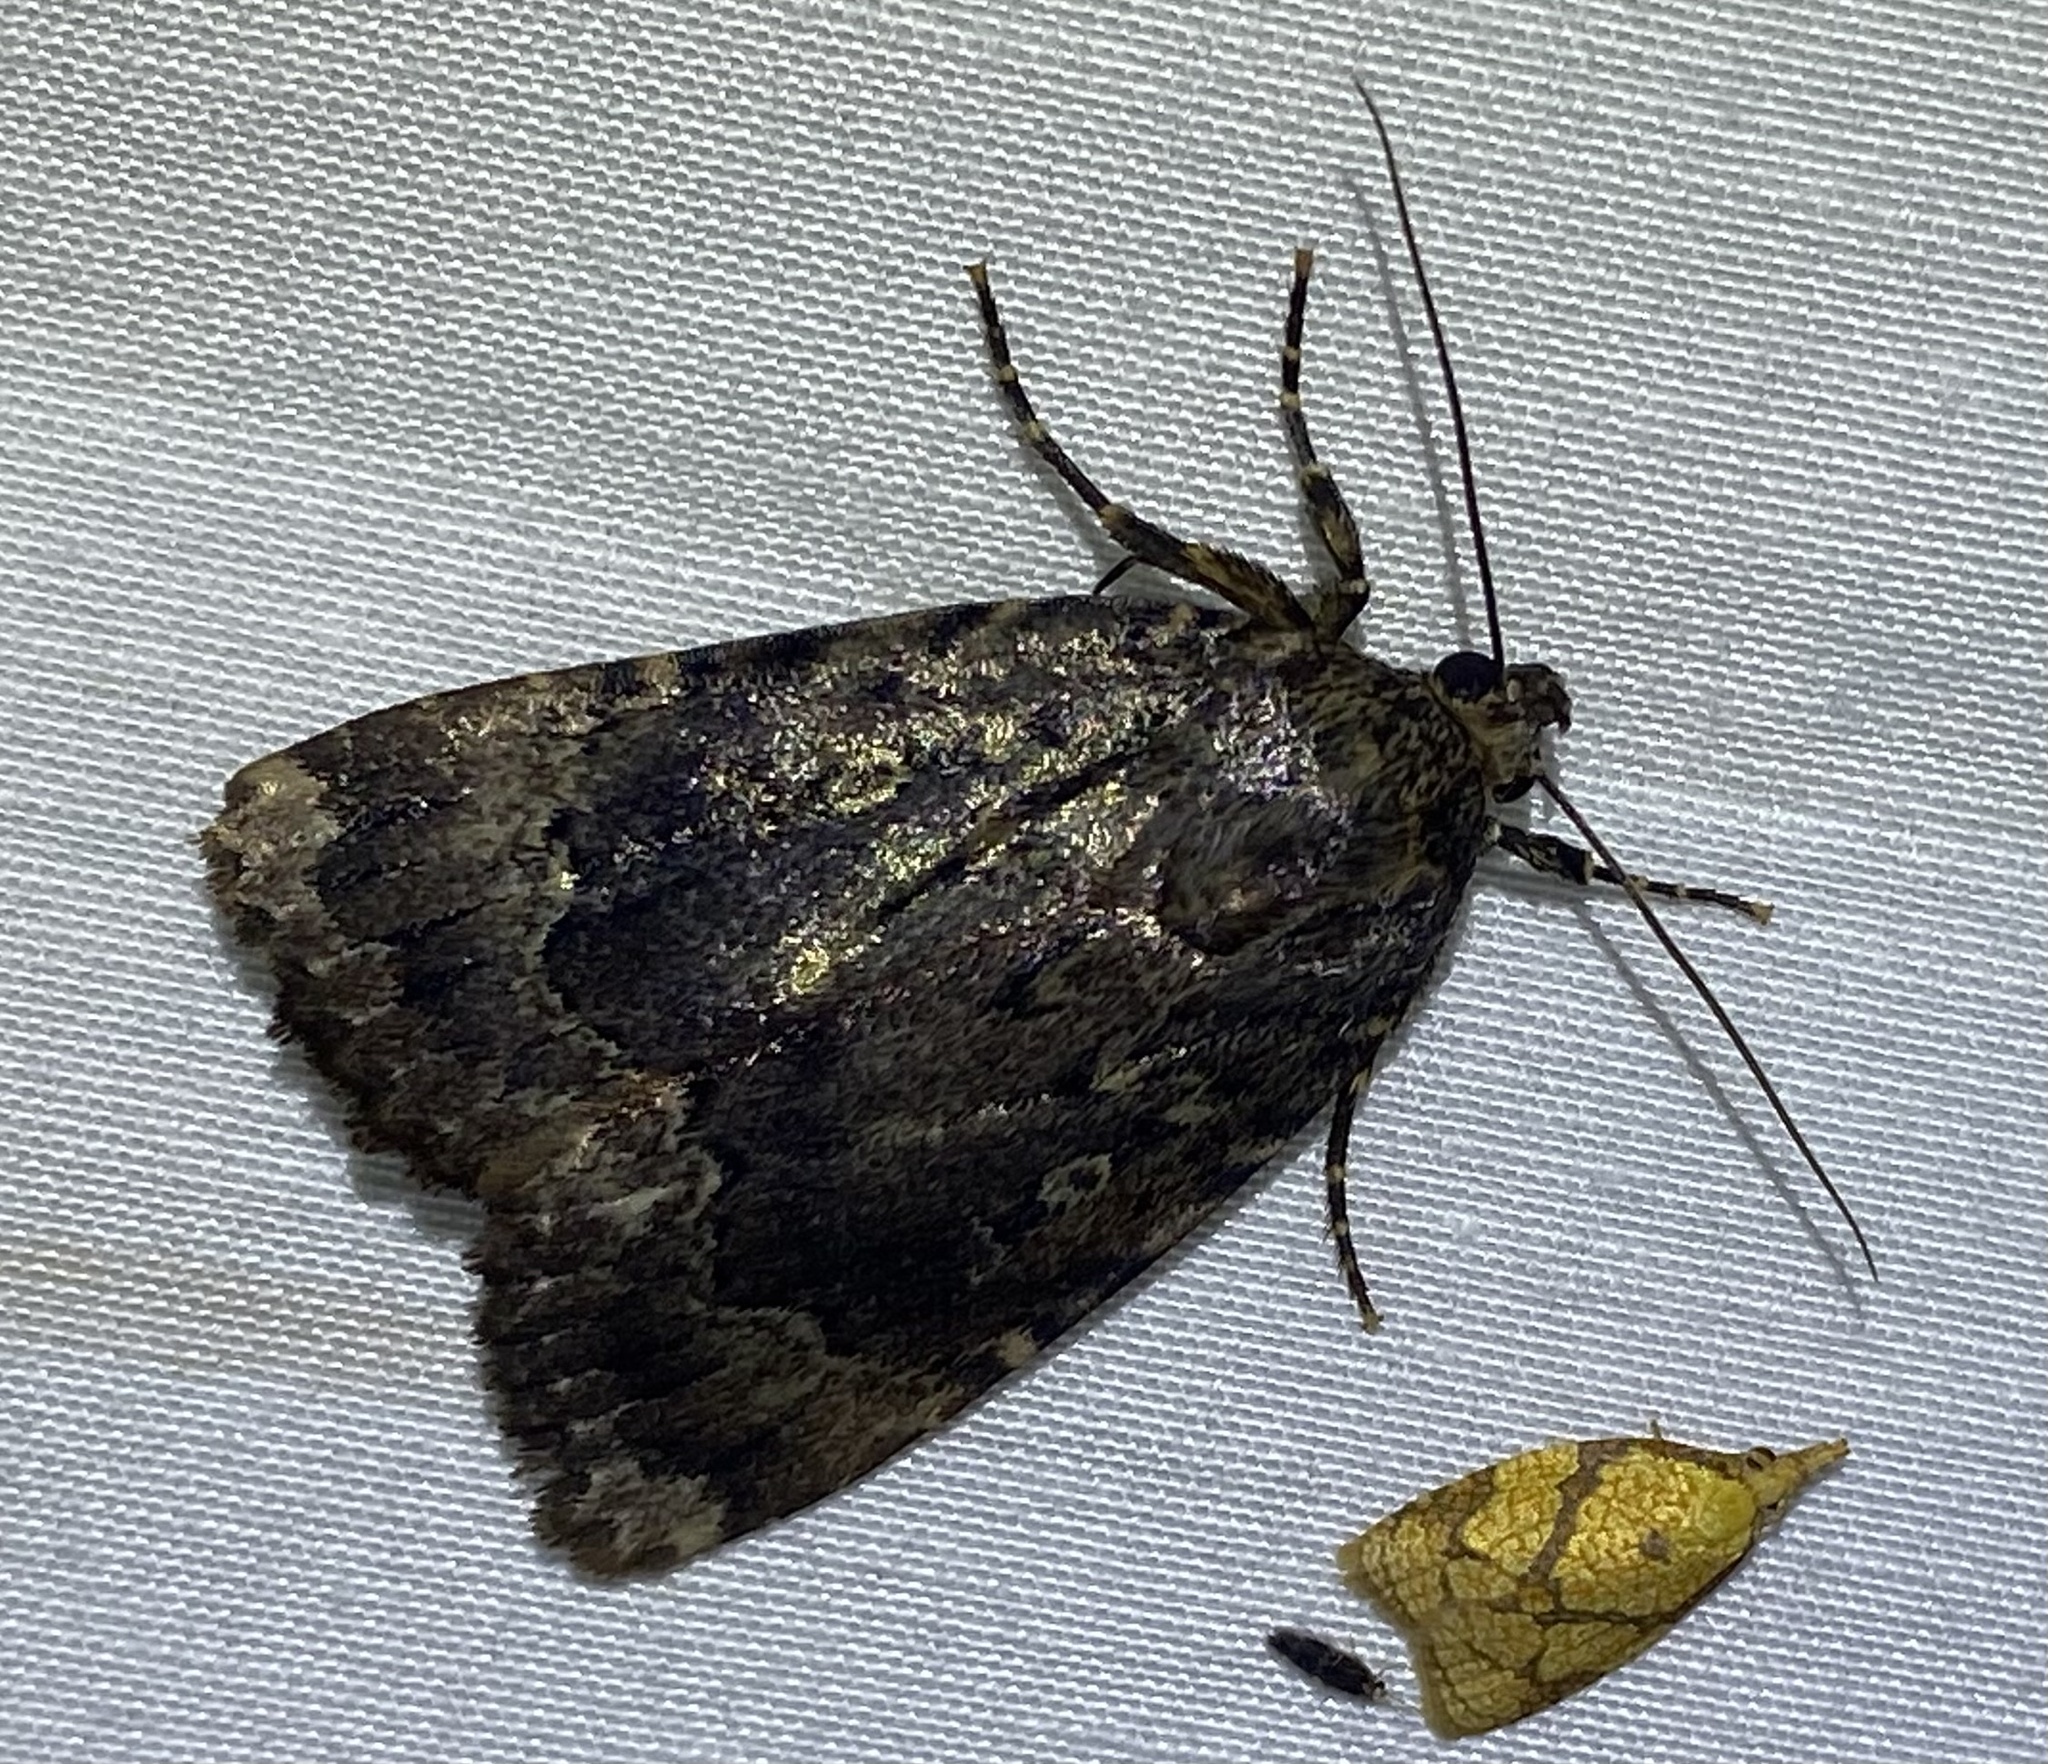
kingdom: Animalia
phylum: Arthropoda
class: Insecta
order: Lepidoptera
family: Noctuidae
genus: Amphipyra
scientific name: Amphipyra pyramidoides
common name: American copper underwing
